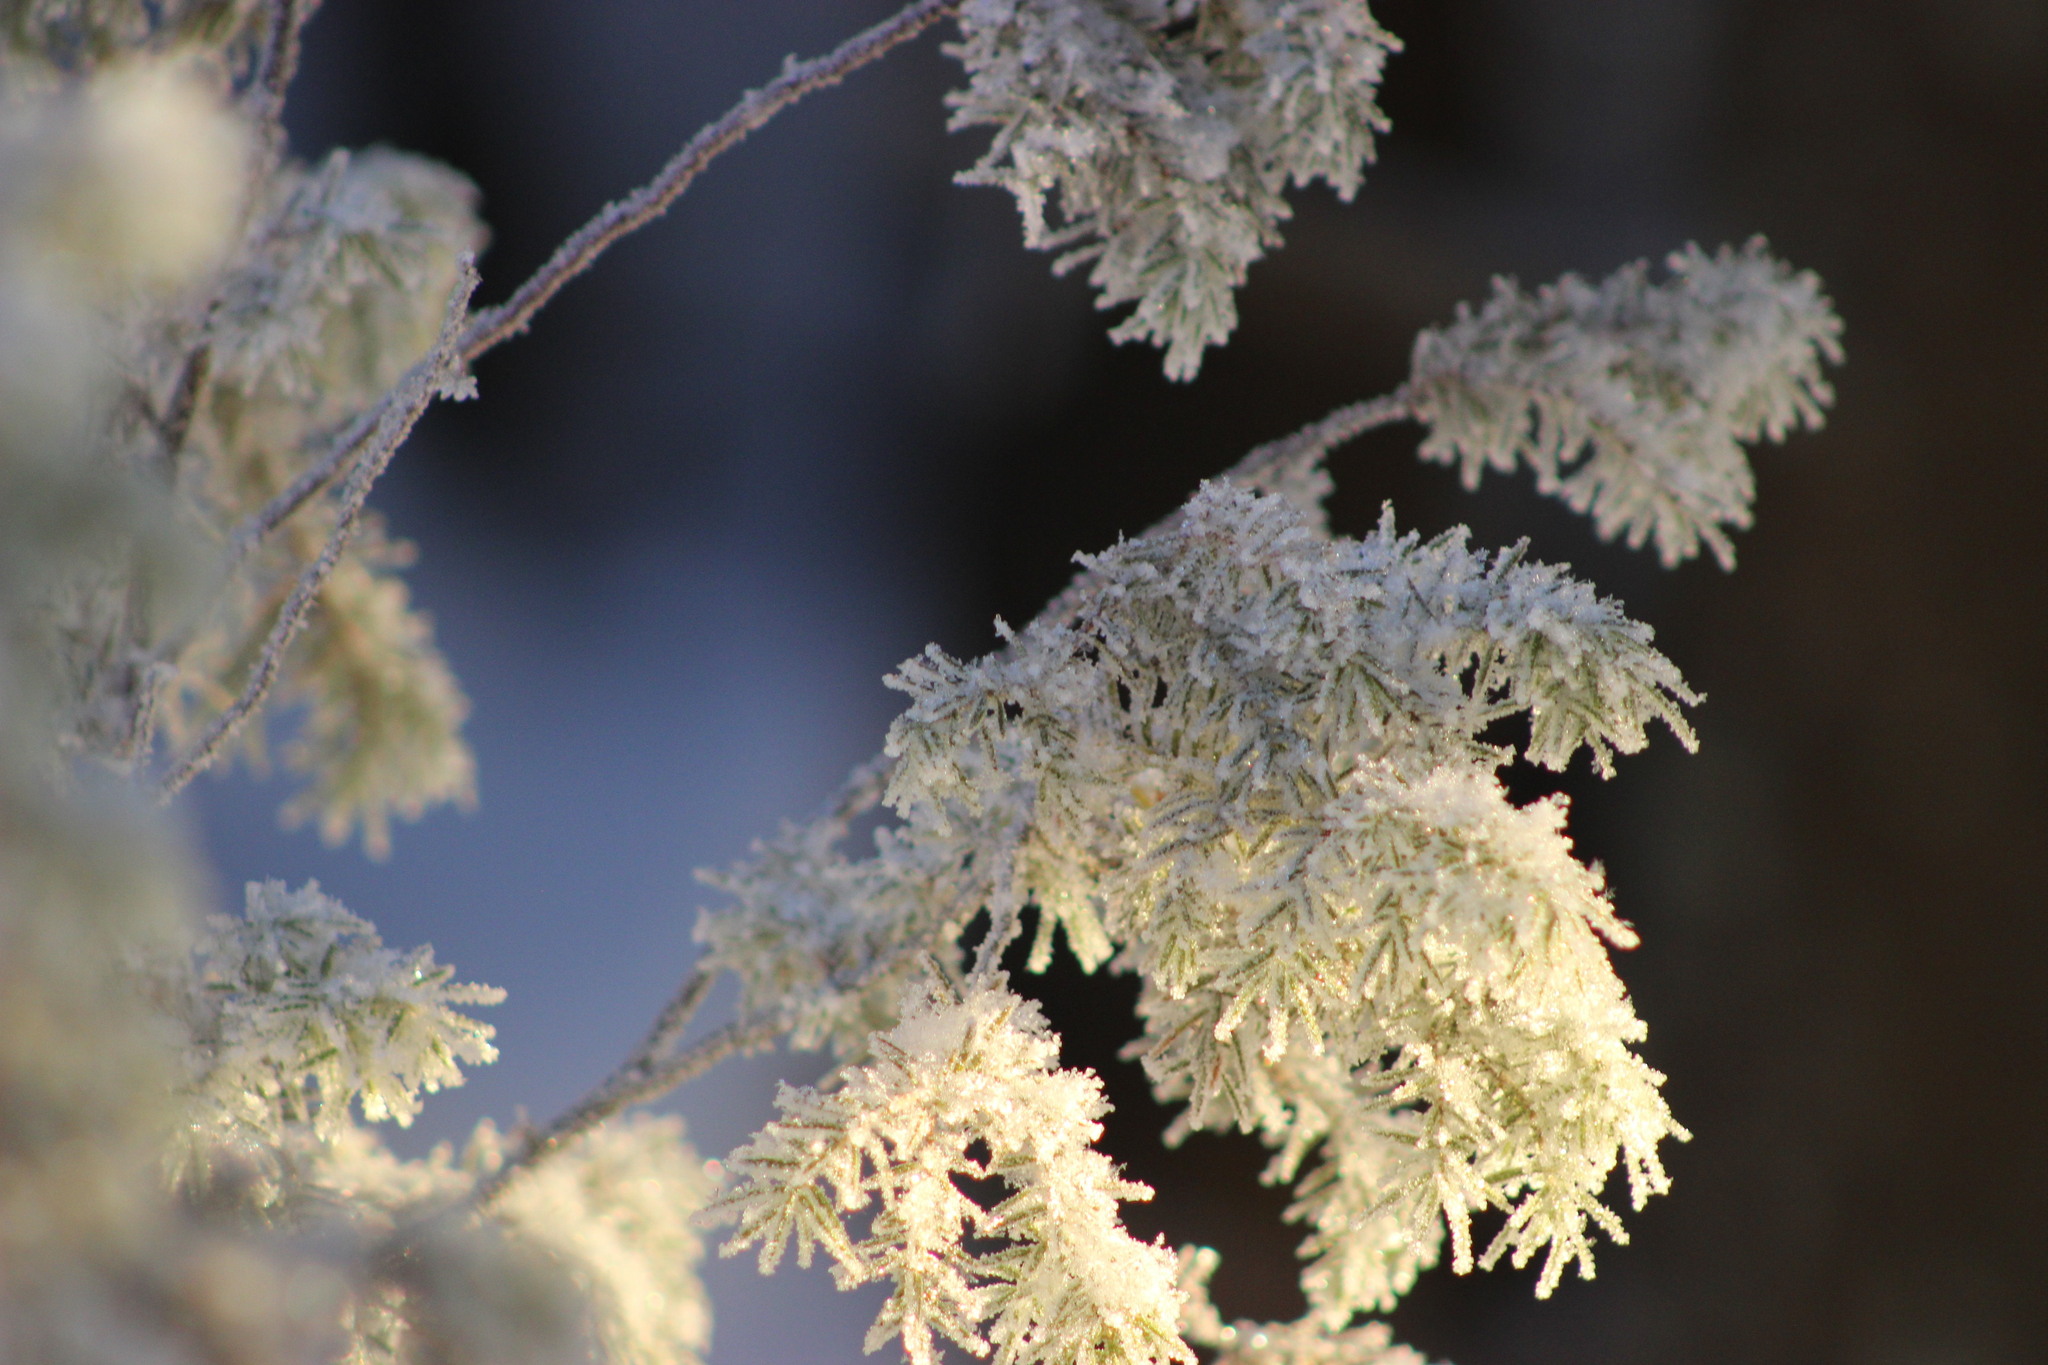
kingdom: Plantae
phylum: Tracheophyta
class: Pinopsida
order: Pinales
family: Cupressaceae
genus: Juniperus
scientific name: Juniperus communis
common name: Common juniper
